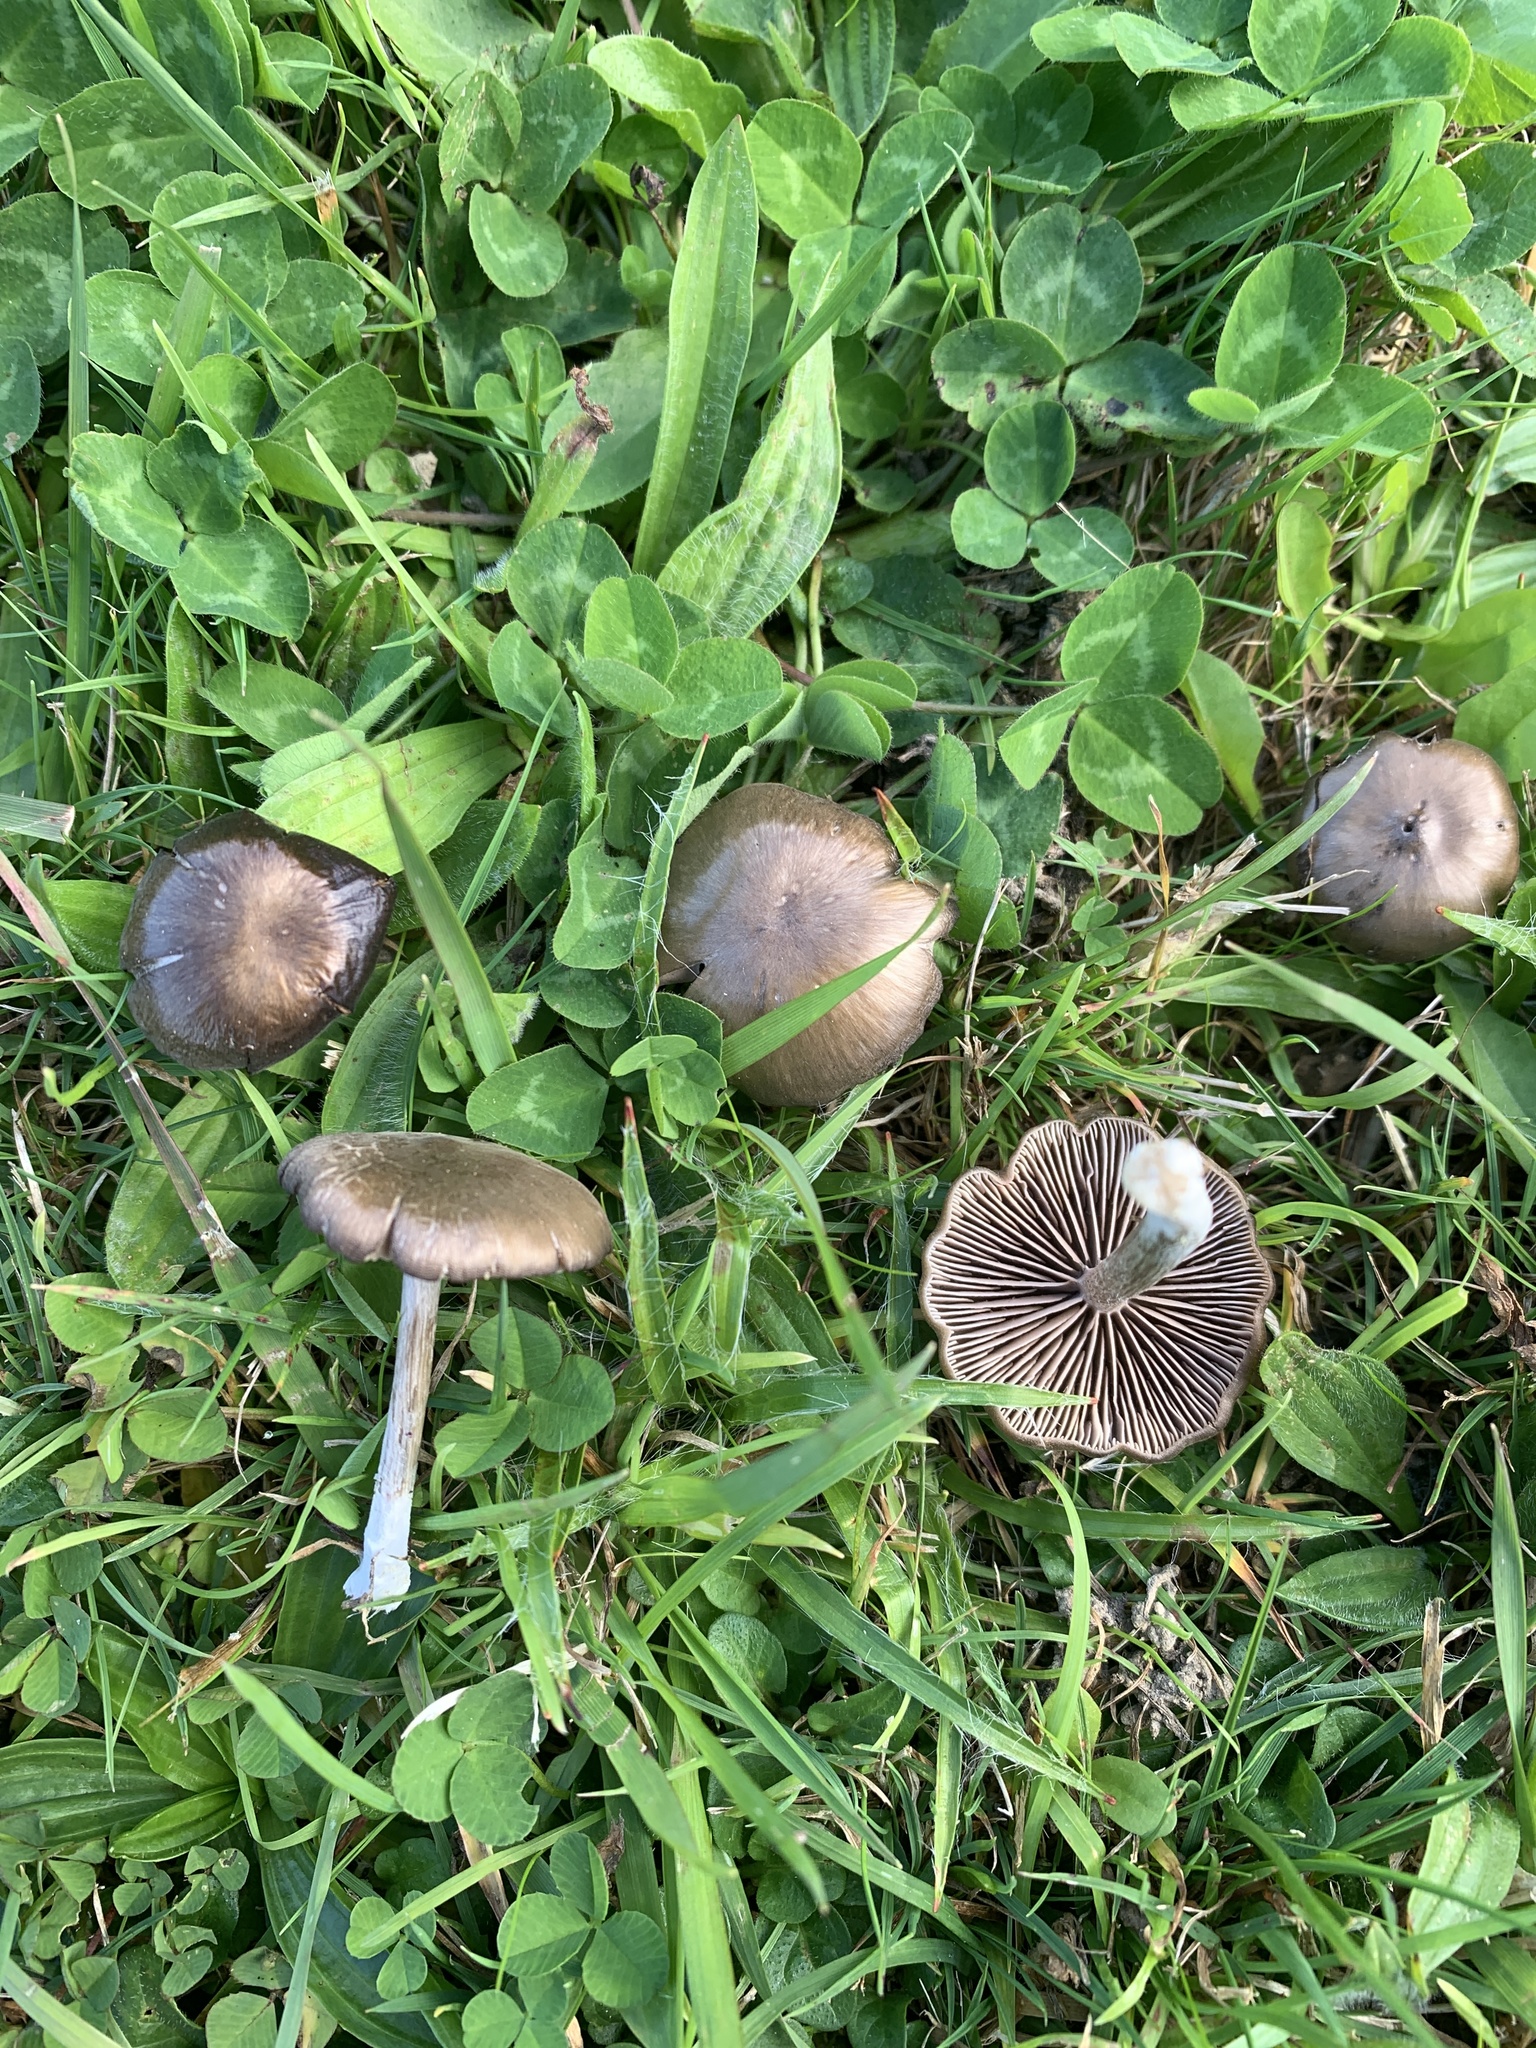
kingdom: Fungi
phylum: Basidiomycota
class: Agaricomycetes
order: Agaricales
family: Entolomataceae
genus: Entoloma
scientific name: Entoloma sericeum
